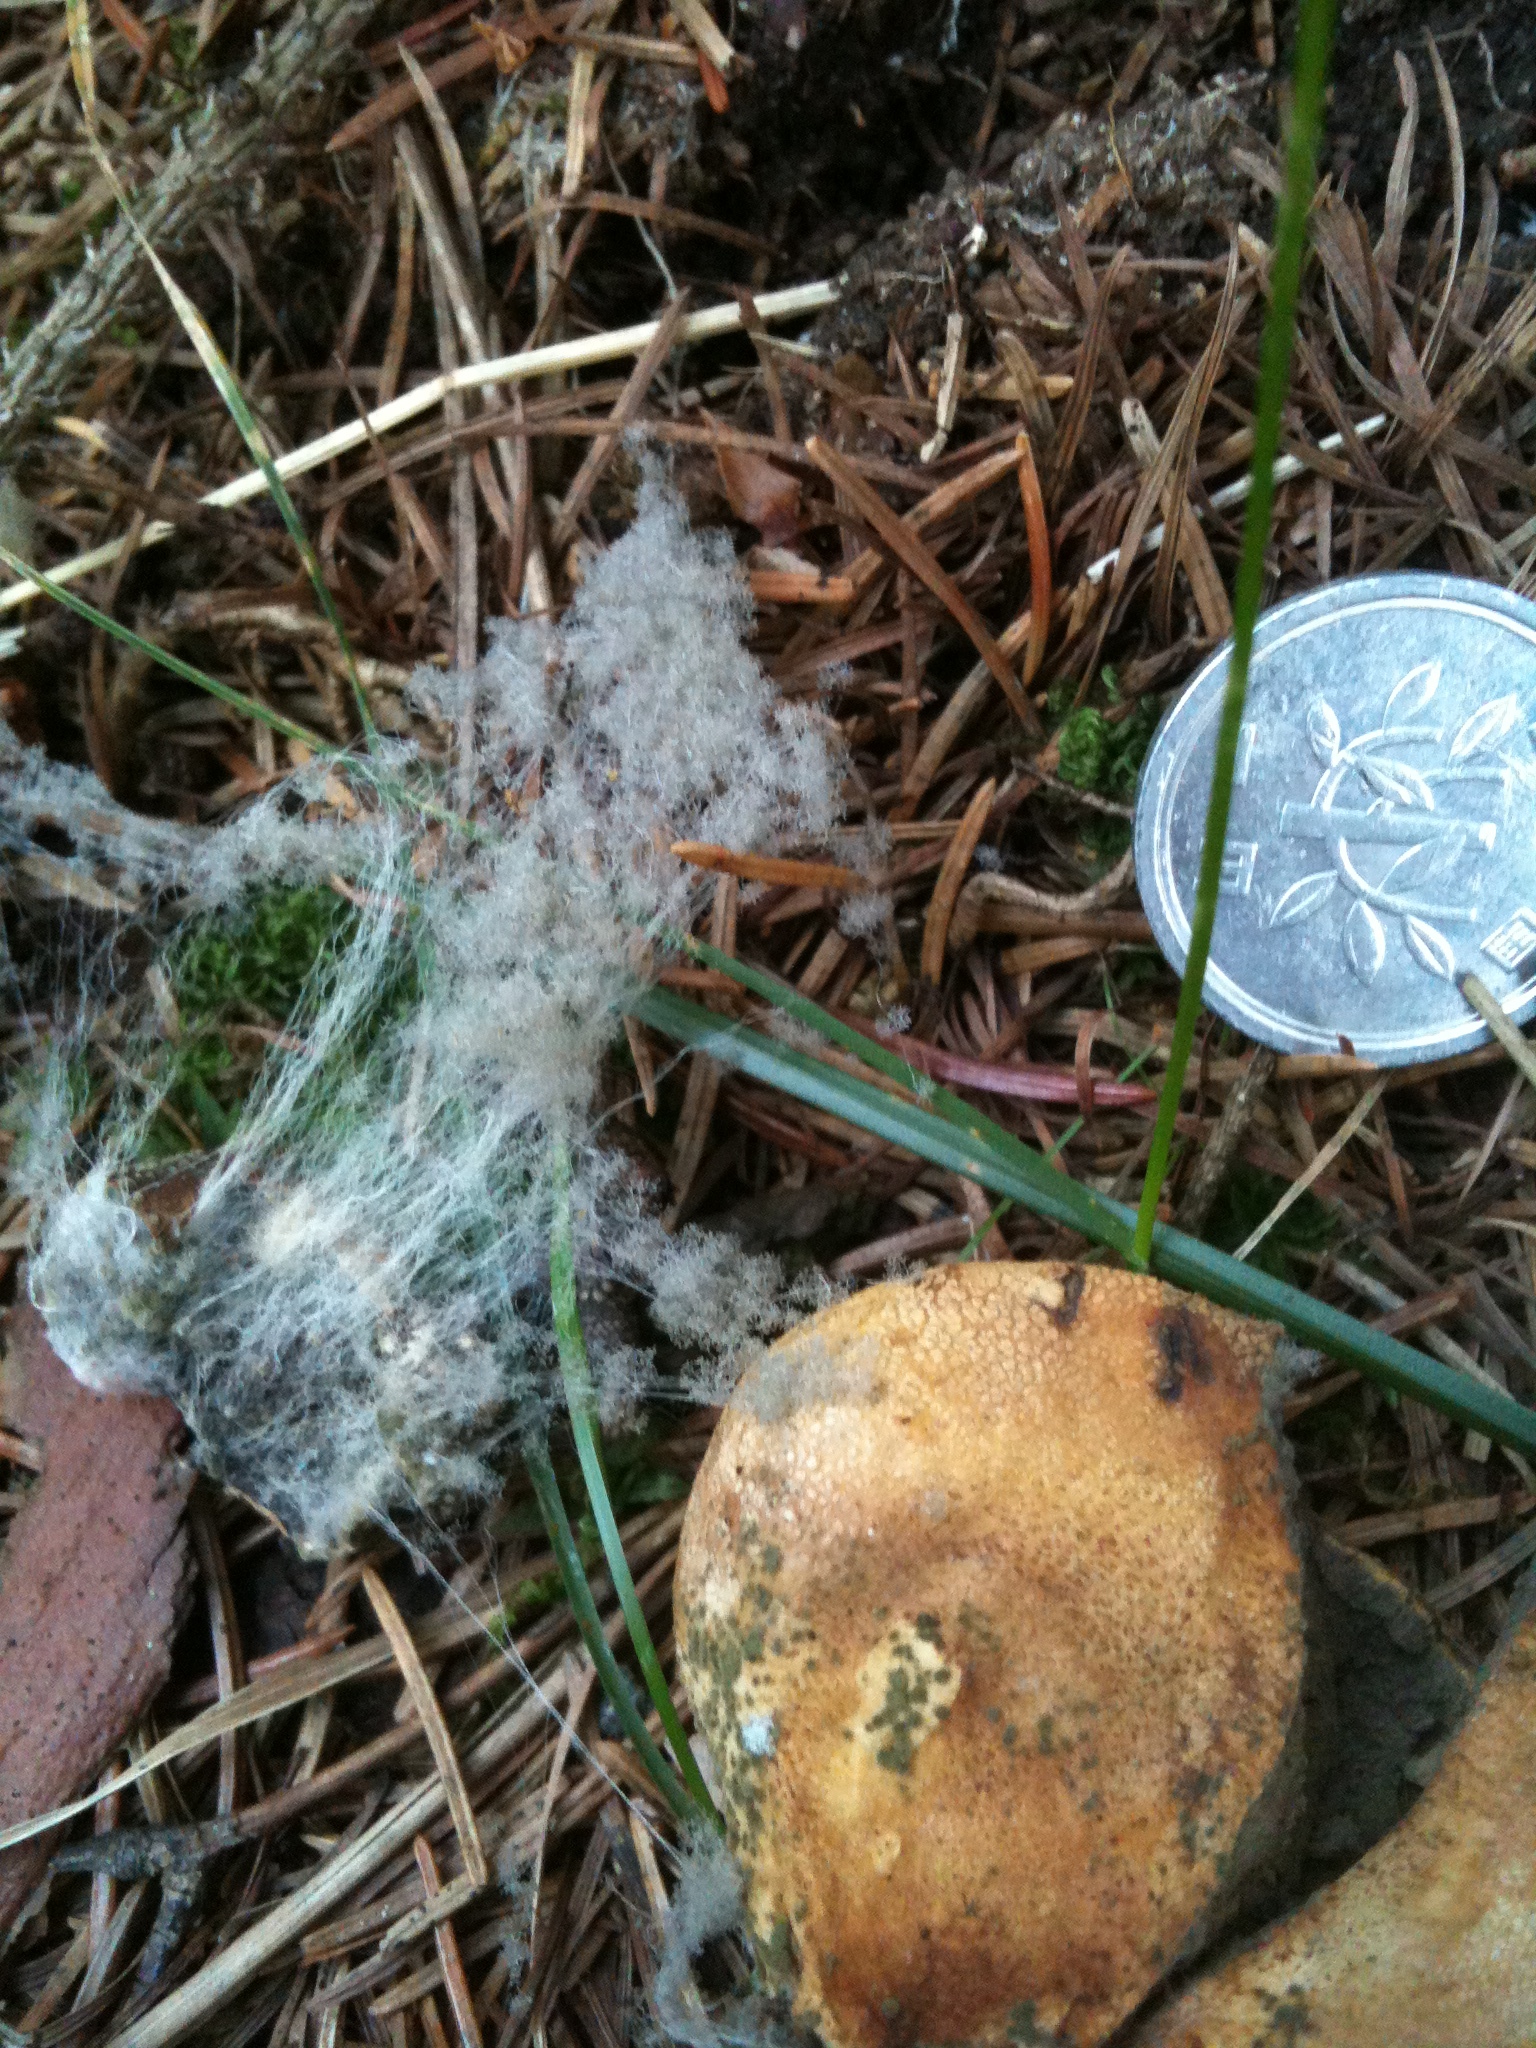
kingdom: Fungi
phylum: Mucoromycota
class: Mucoromycetes
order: Mucorales
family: Rhizopodaceae
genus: Syzygites
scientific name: Syzygites megalocarpus
